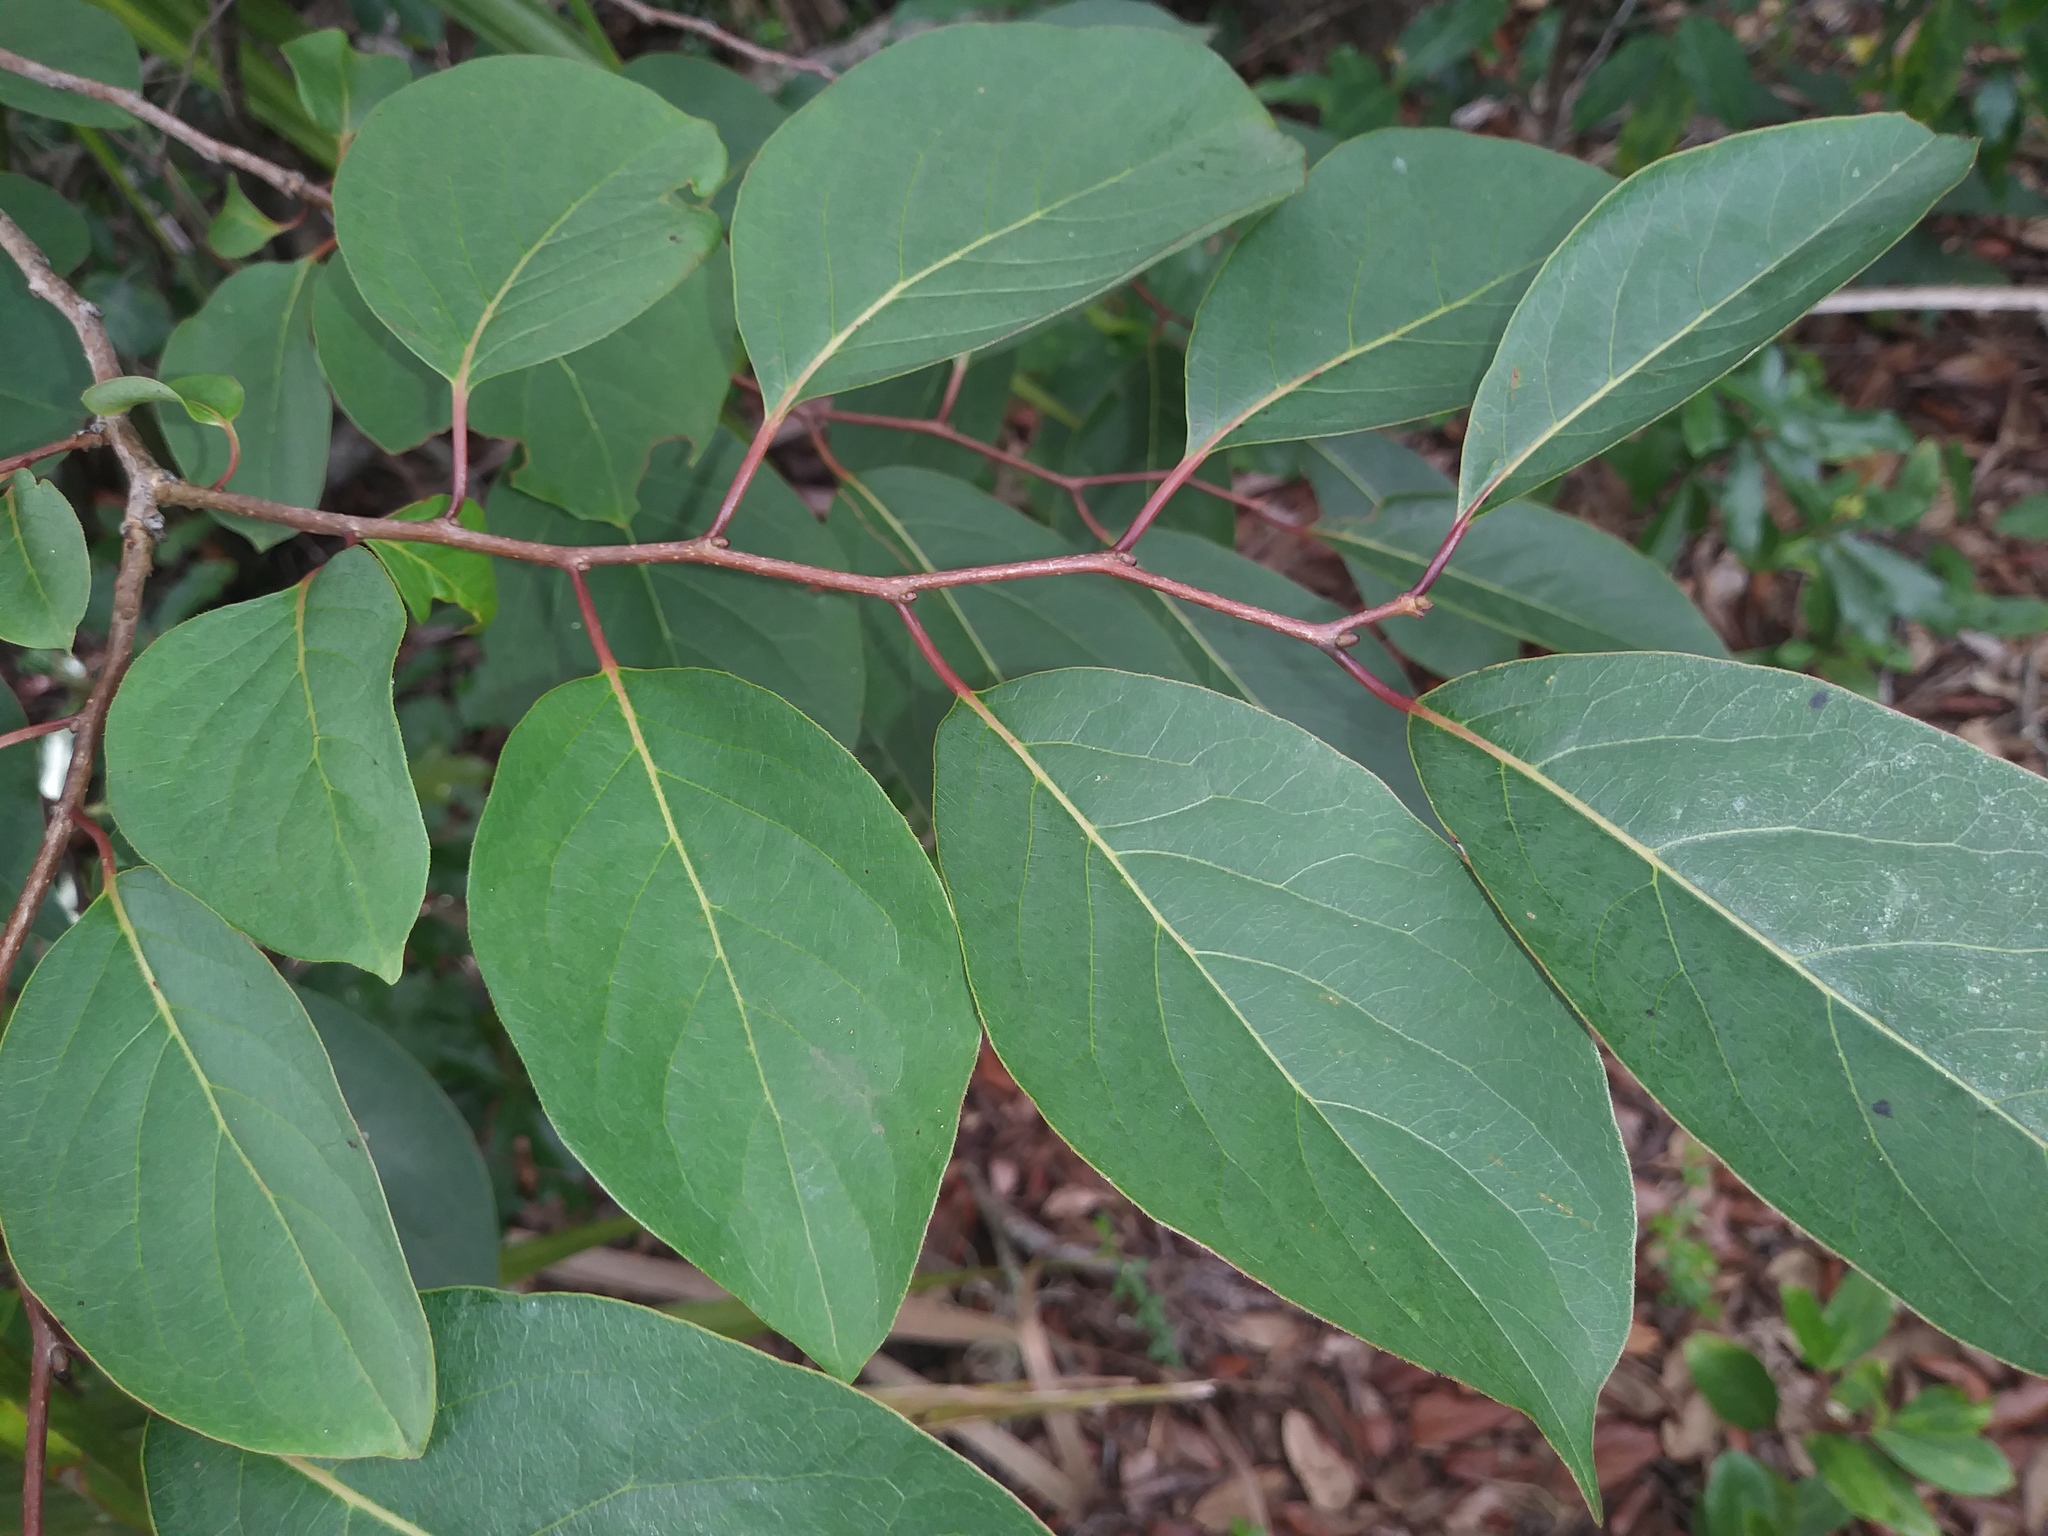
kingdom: Plantae
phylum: Tracheophyta
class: Magnoliopsida
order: Ericales
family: Ebenaceae
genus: Diospyros
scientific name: Diospyros virginiana
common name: Persimmon
